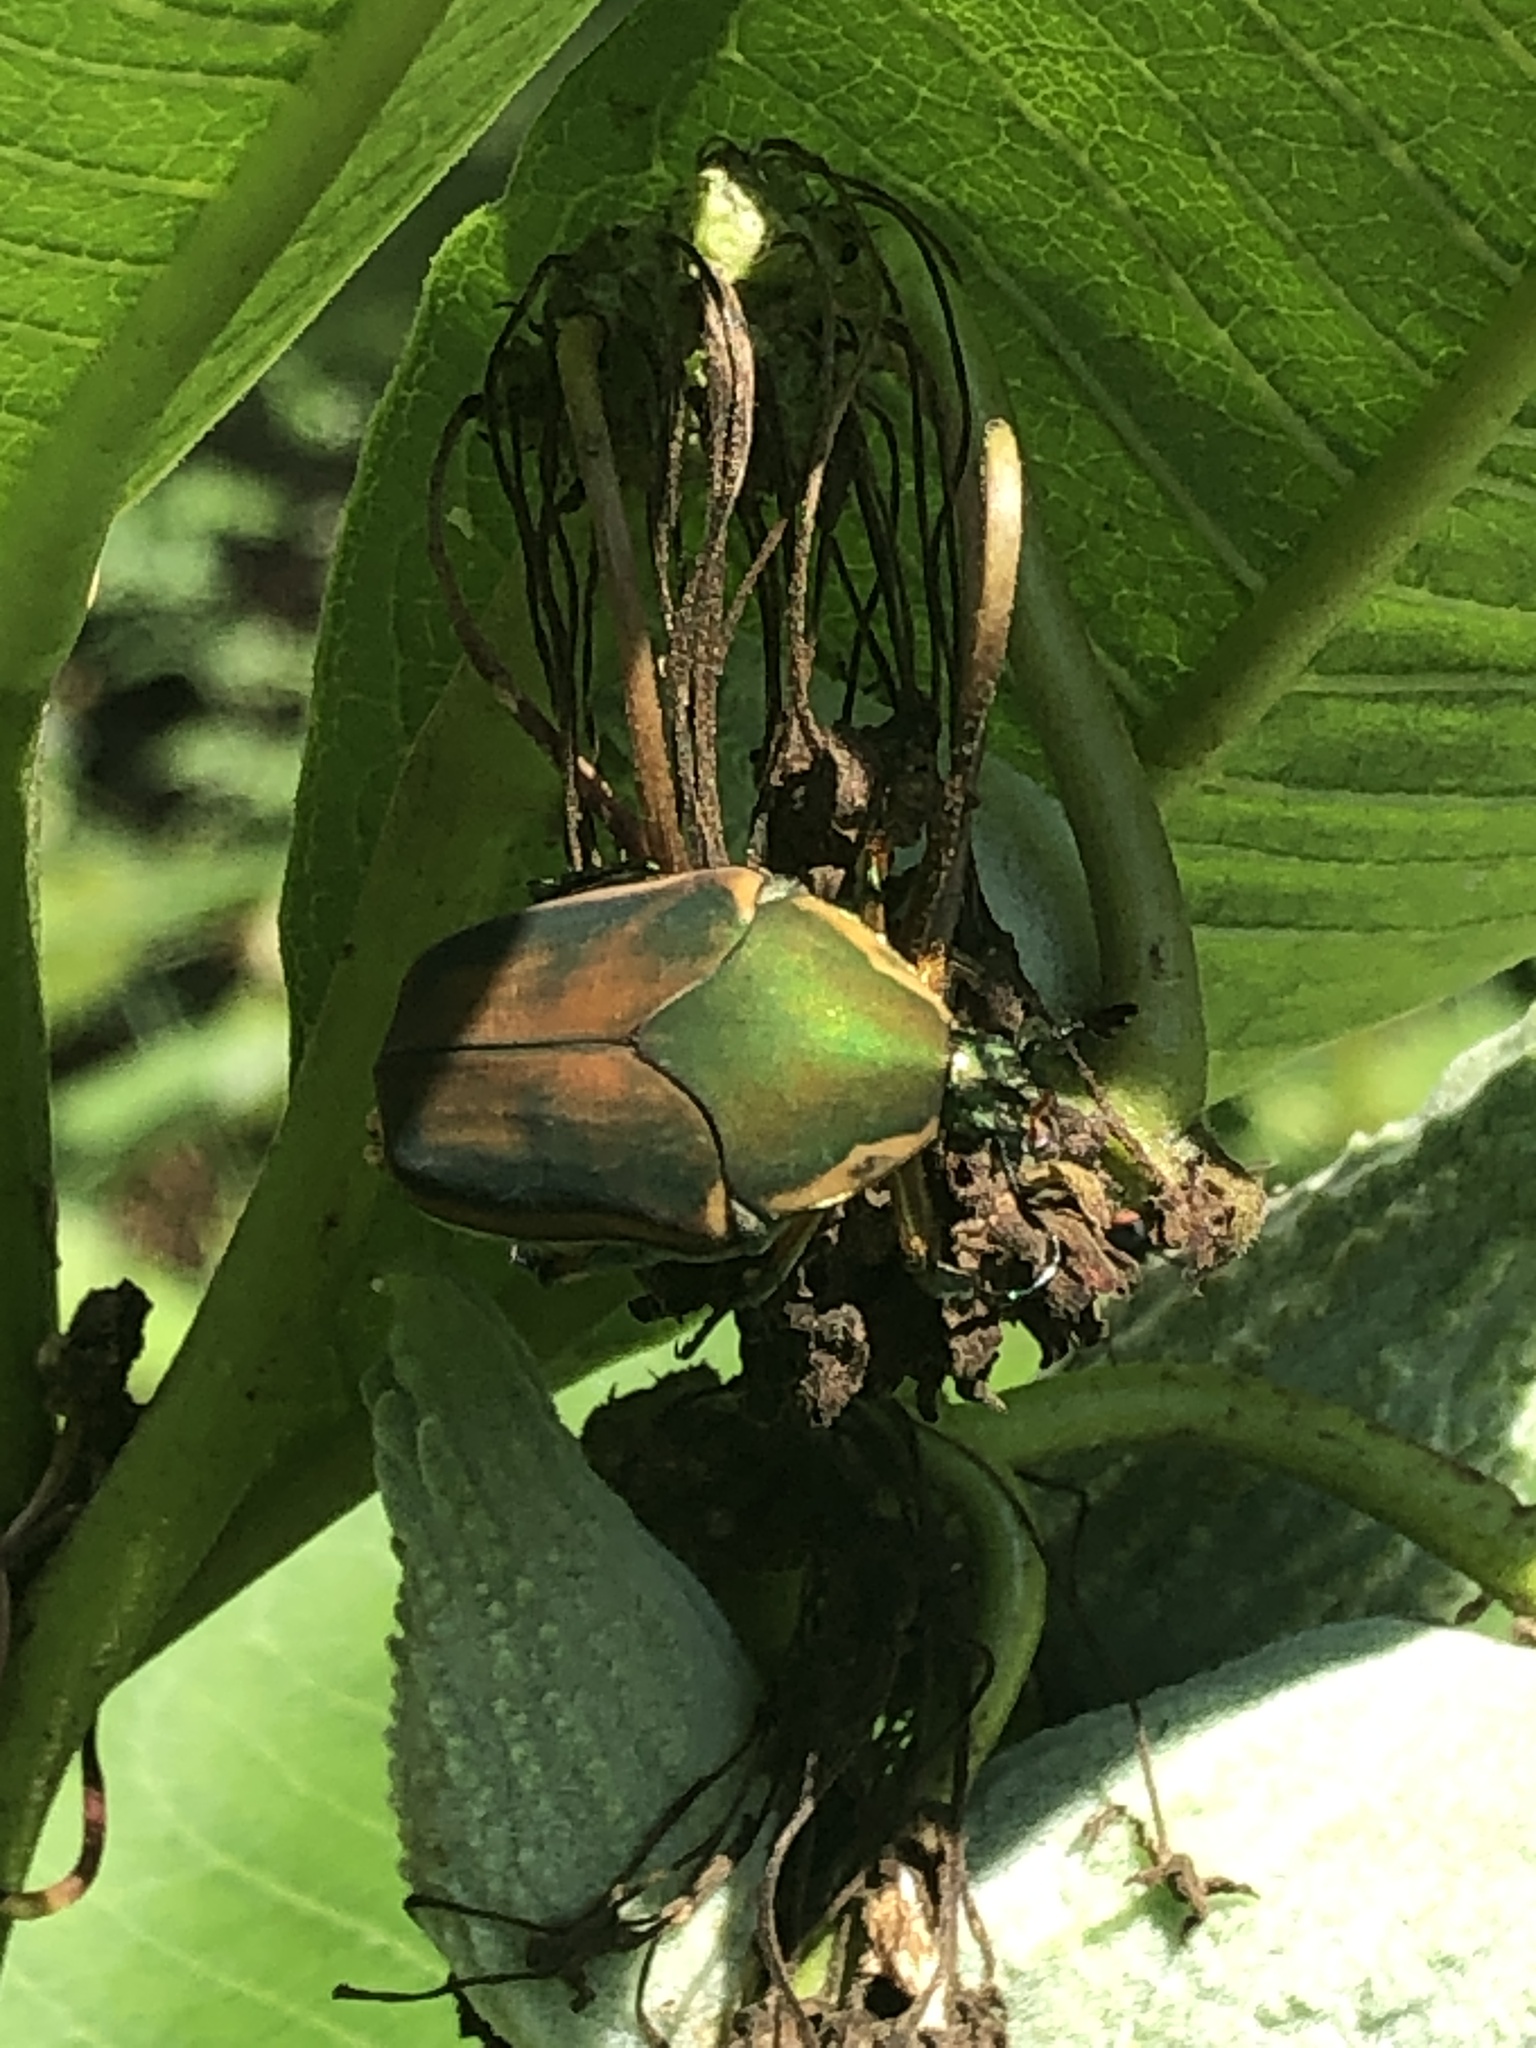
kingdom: Animalia
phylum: Arthropoda
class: Insecta
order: Coleoptera
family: Scarabaeidae
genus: Cotinis
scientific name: Cotinis nitida
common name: Common green june beetle
